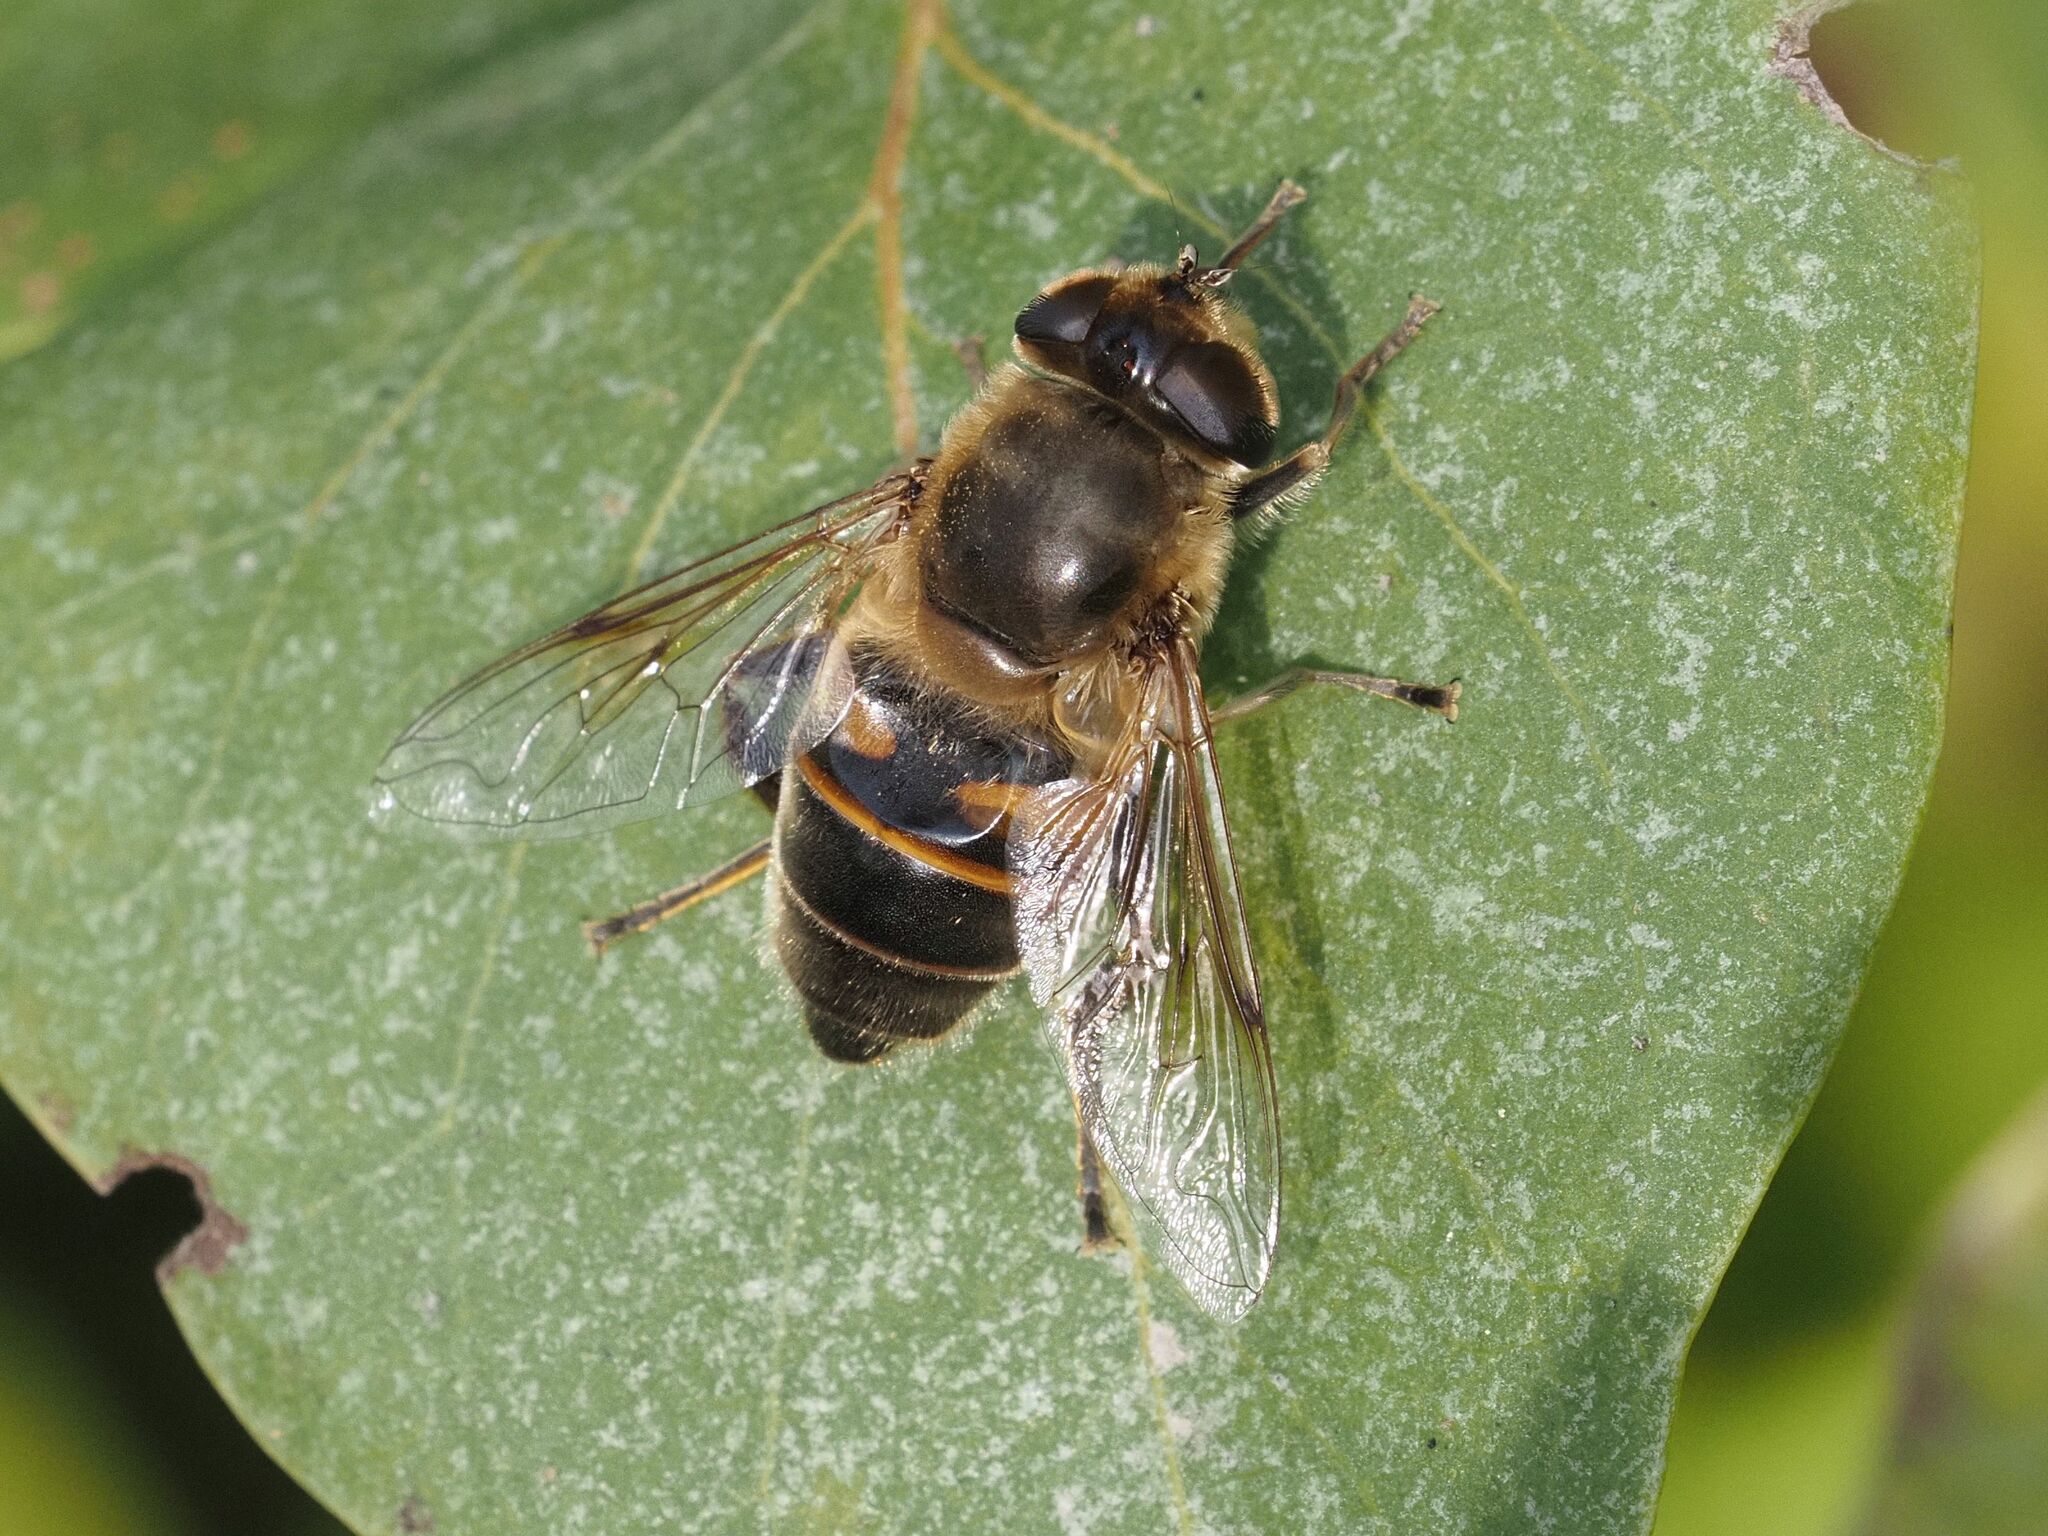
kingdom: Animalia
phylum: Arthropoda
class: Insecta
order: Diptera
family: Syrphidae
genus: Eristalis
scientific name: Eristalis tenax
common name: Drone fly
